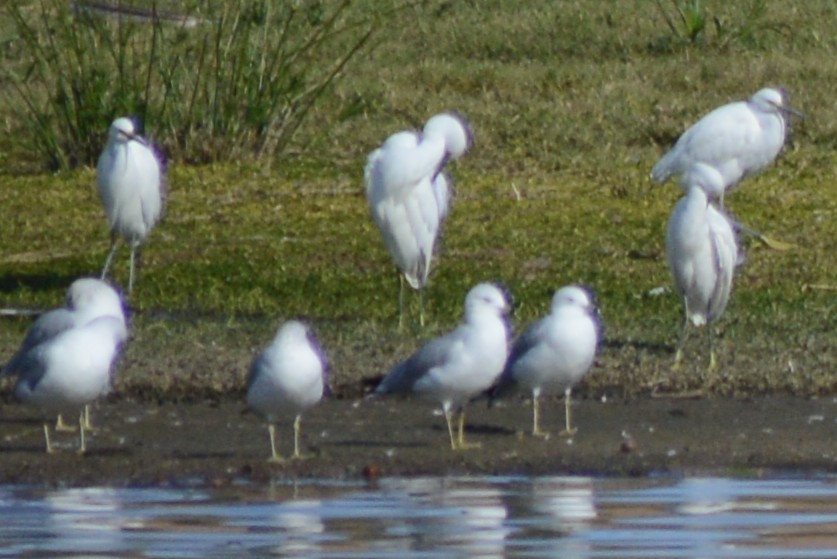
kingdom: Animalia
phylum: Chordata
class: Aves
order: Pelecaniformes
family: Ardeidae
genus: Egretta
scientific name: Egretta thula
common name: Snowy egret
